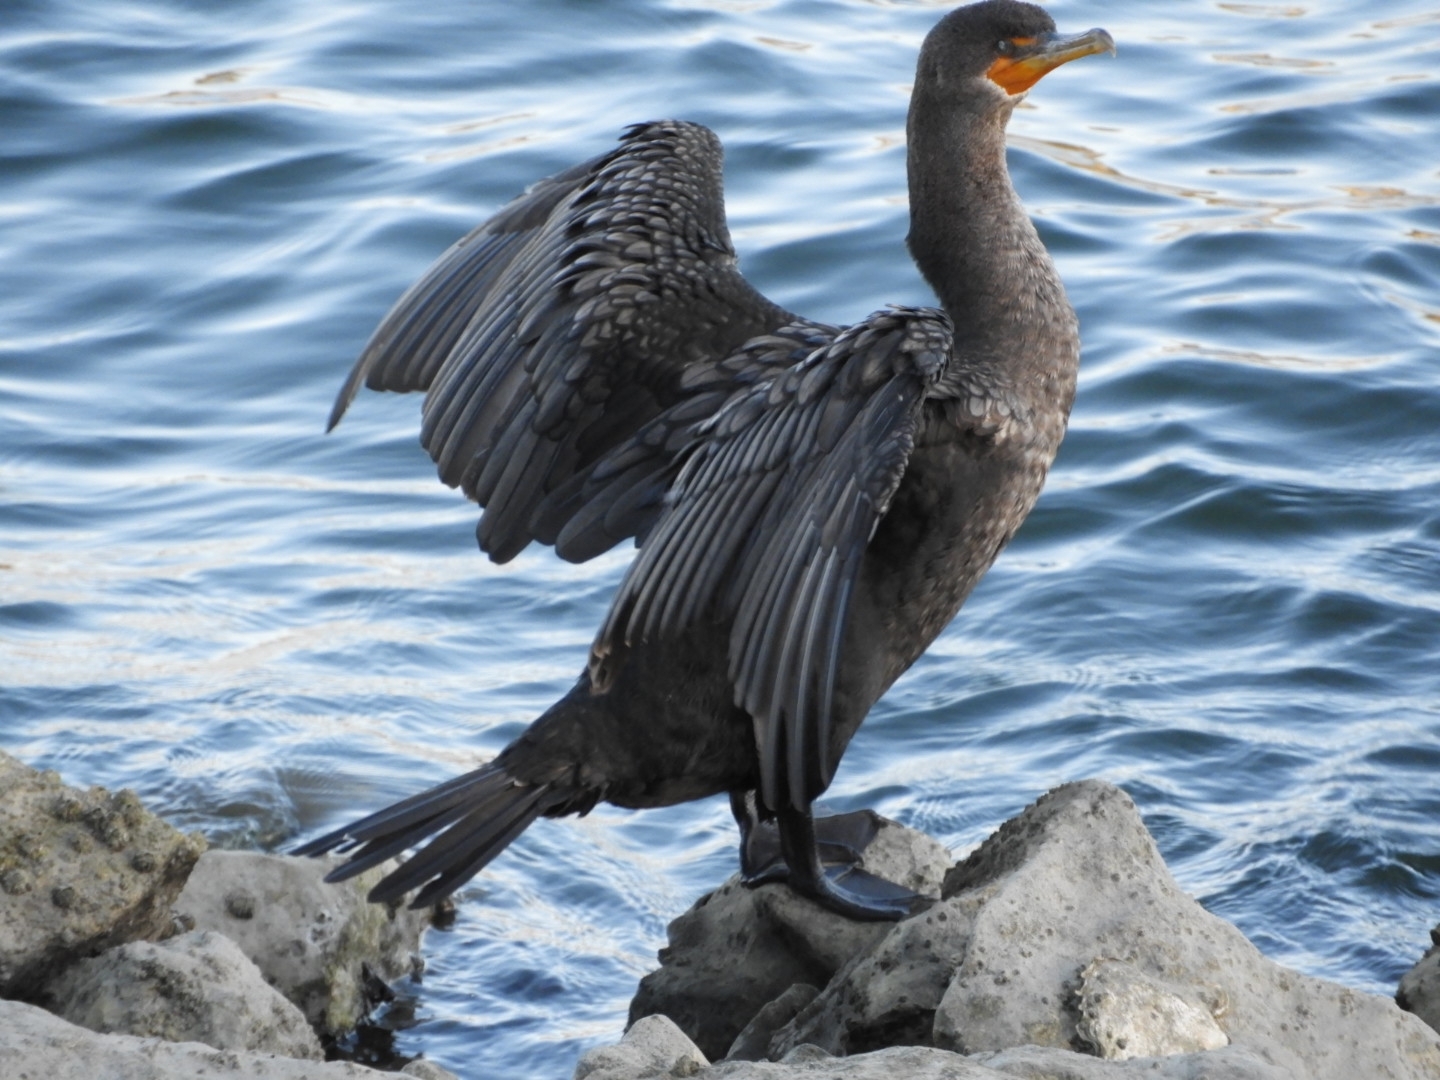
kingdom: Animalia
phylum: Chordata
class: Aves
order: Suliformes
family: Phalacrocoracidae
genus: Phalacrocorax
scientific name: Phalacrocorax auritus
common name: Double-crested cormorant
